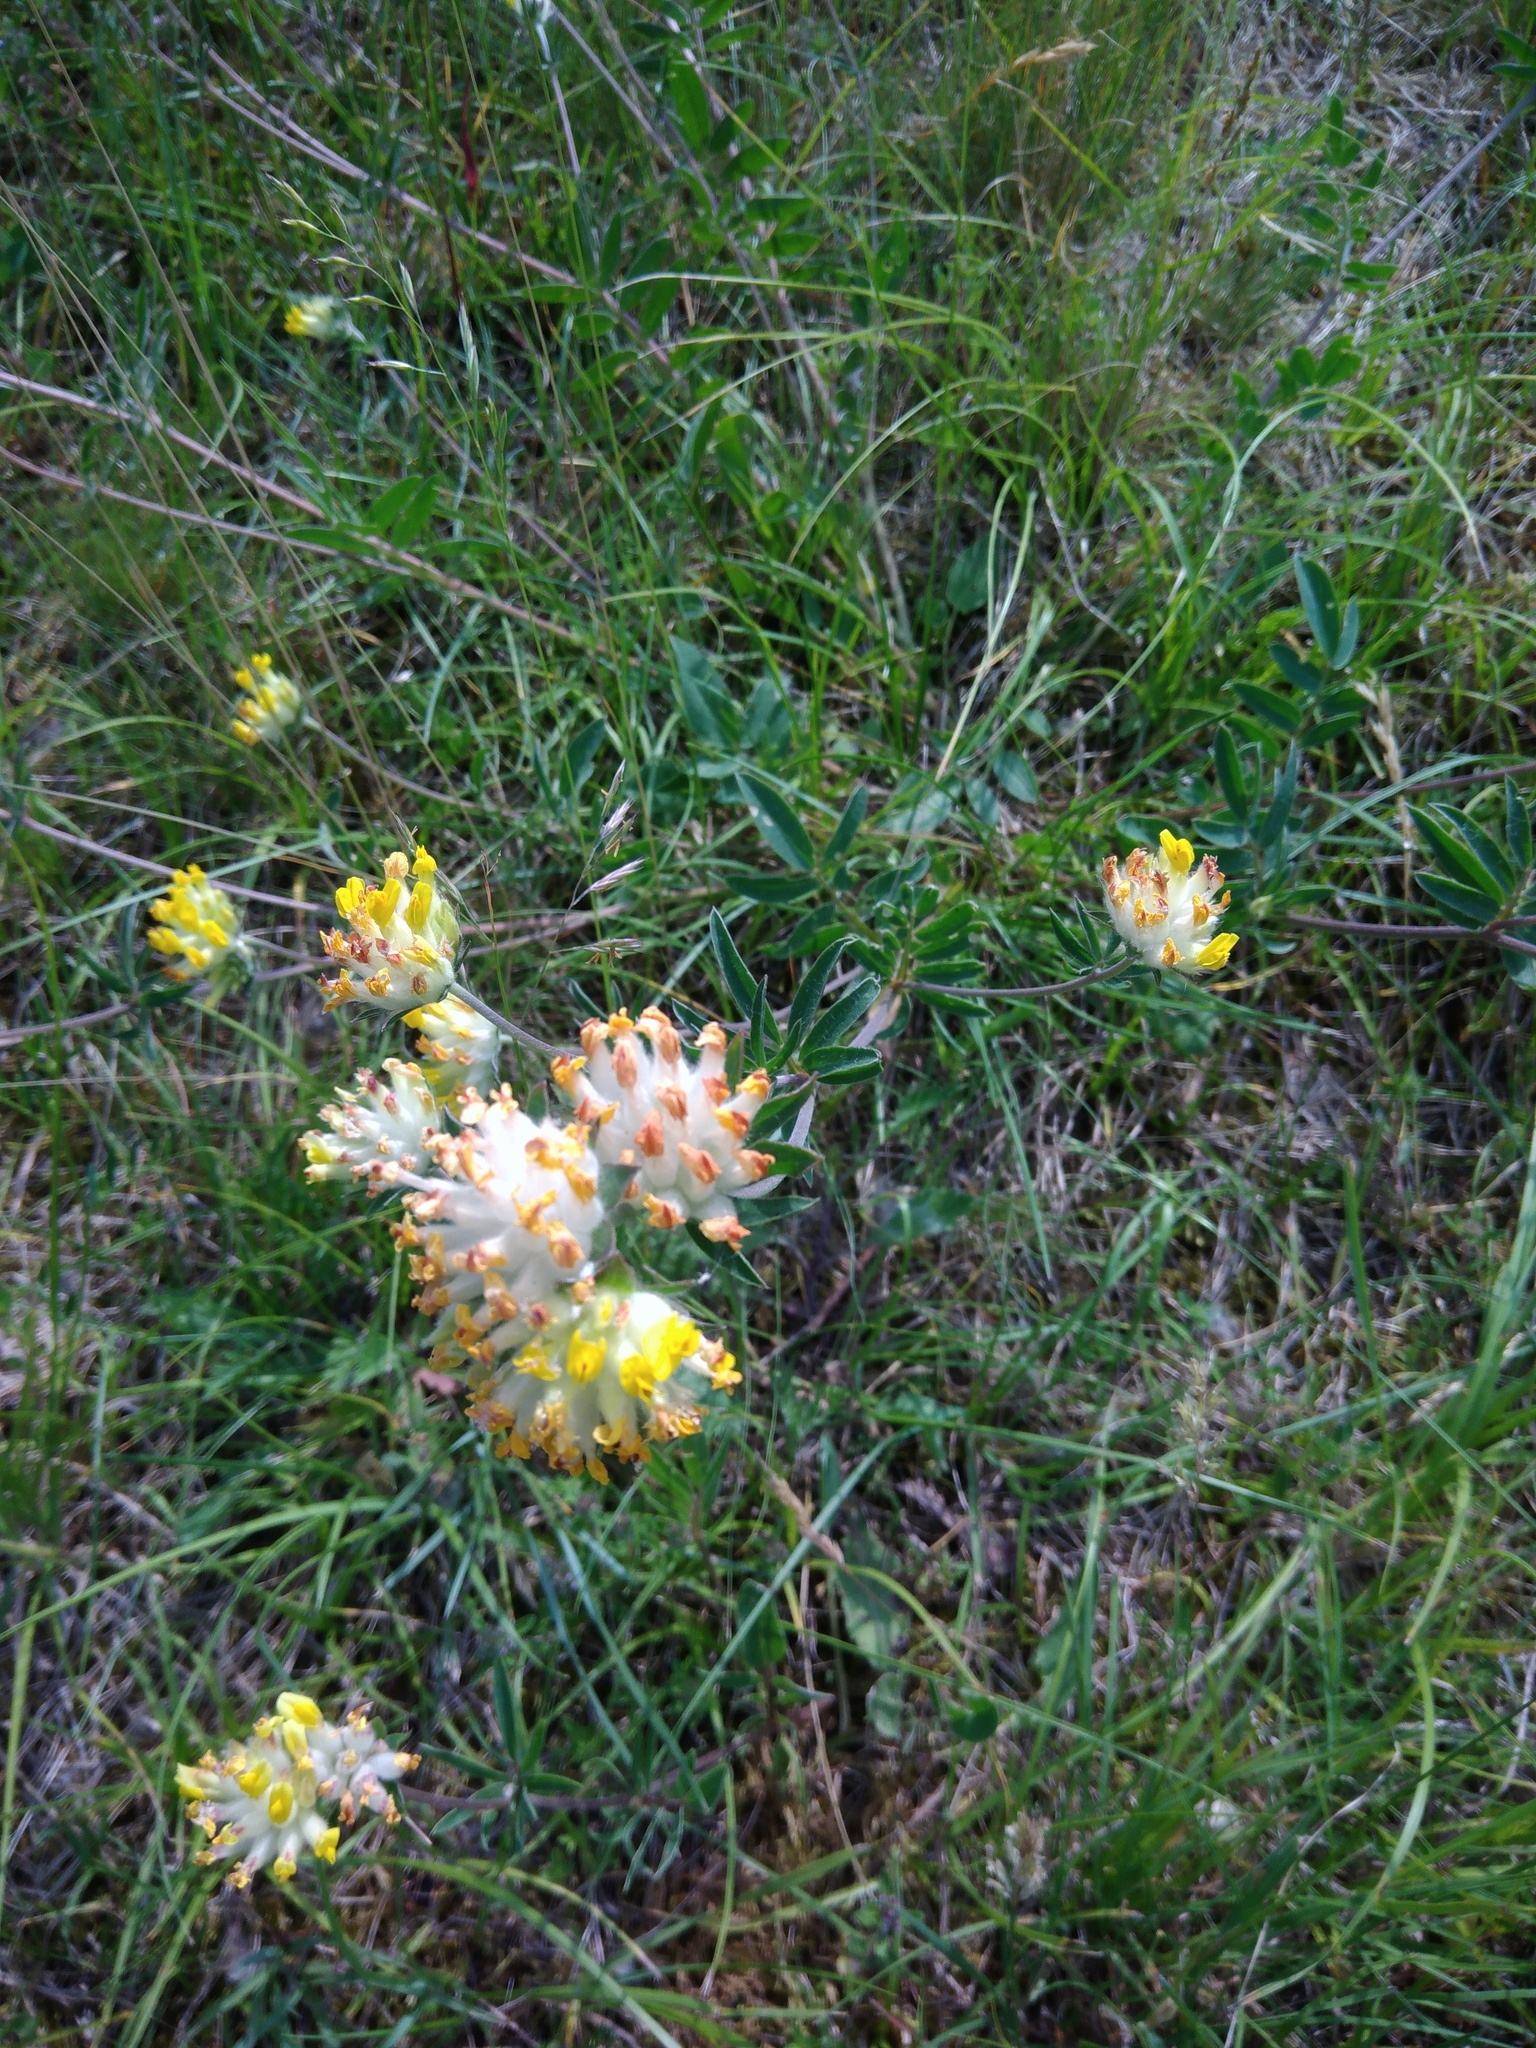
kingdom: Plantae
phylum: Tracheophyta
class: Magnoliopsida
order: Fabales
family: Fabaceae
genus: Anthyllis
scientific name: Anthyllis vulneraria
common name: Kidney vetch
